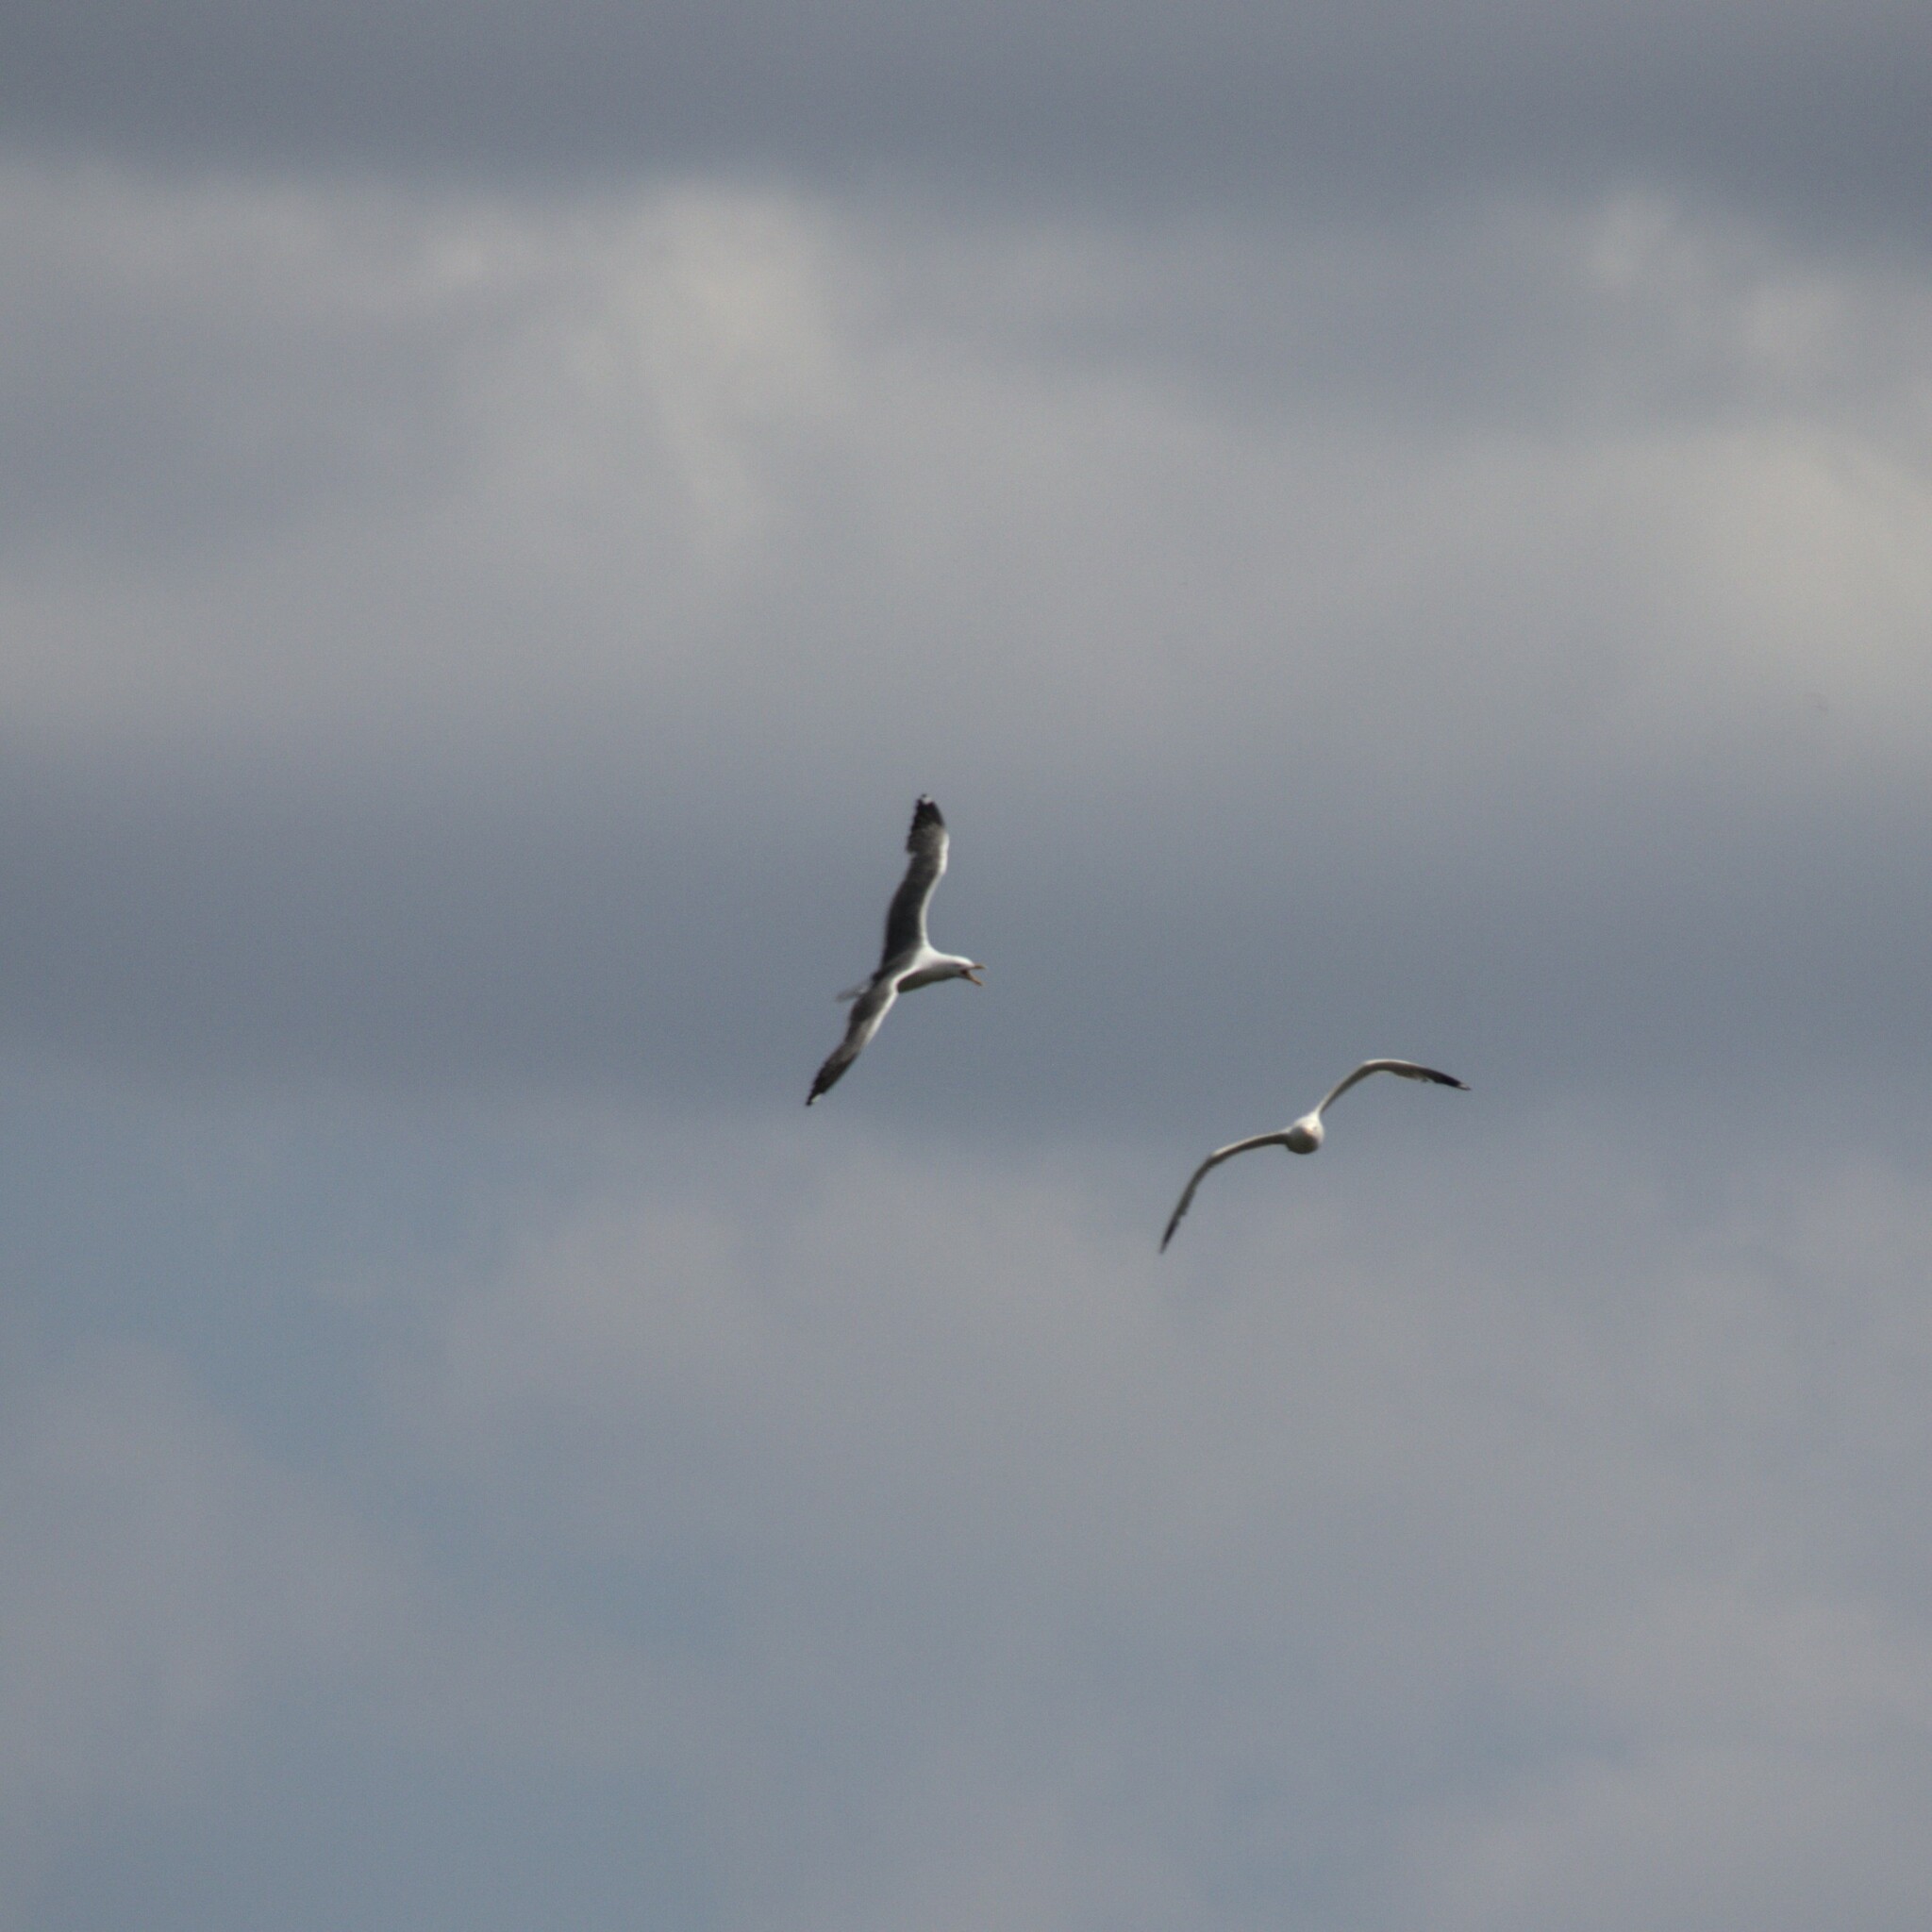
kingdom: Animalia
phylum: Chordata
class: Aves
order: Charadriiformes
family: Laridae
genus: Larus
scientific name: Larus fuscus
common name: Lesser black-backed gull
